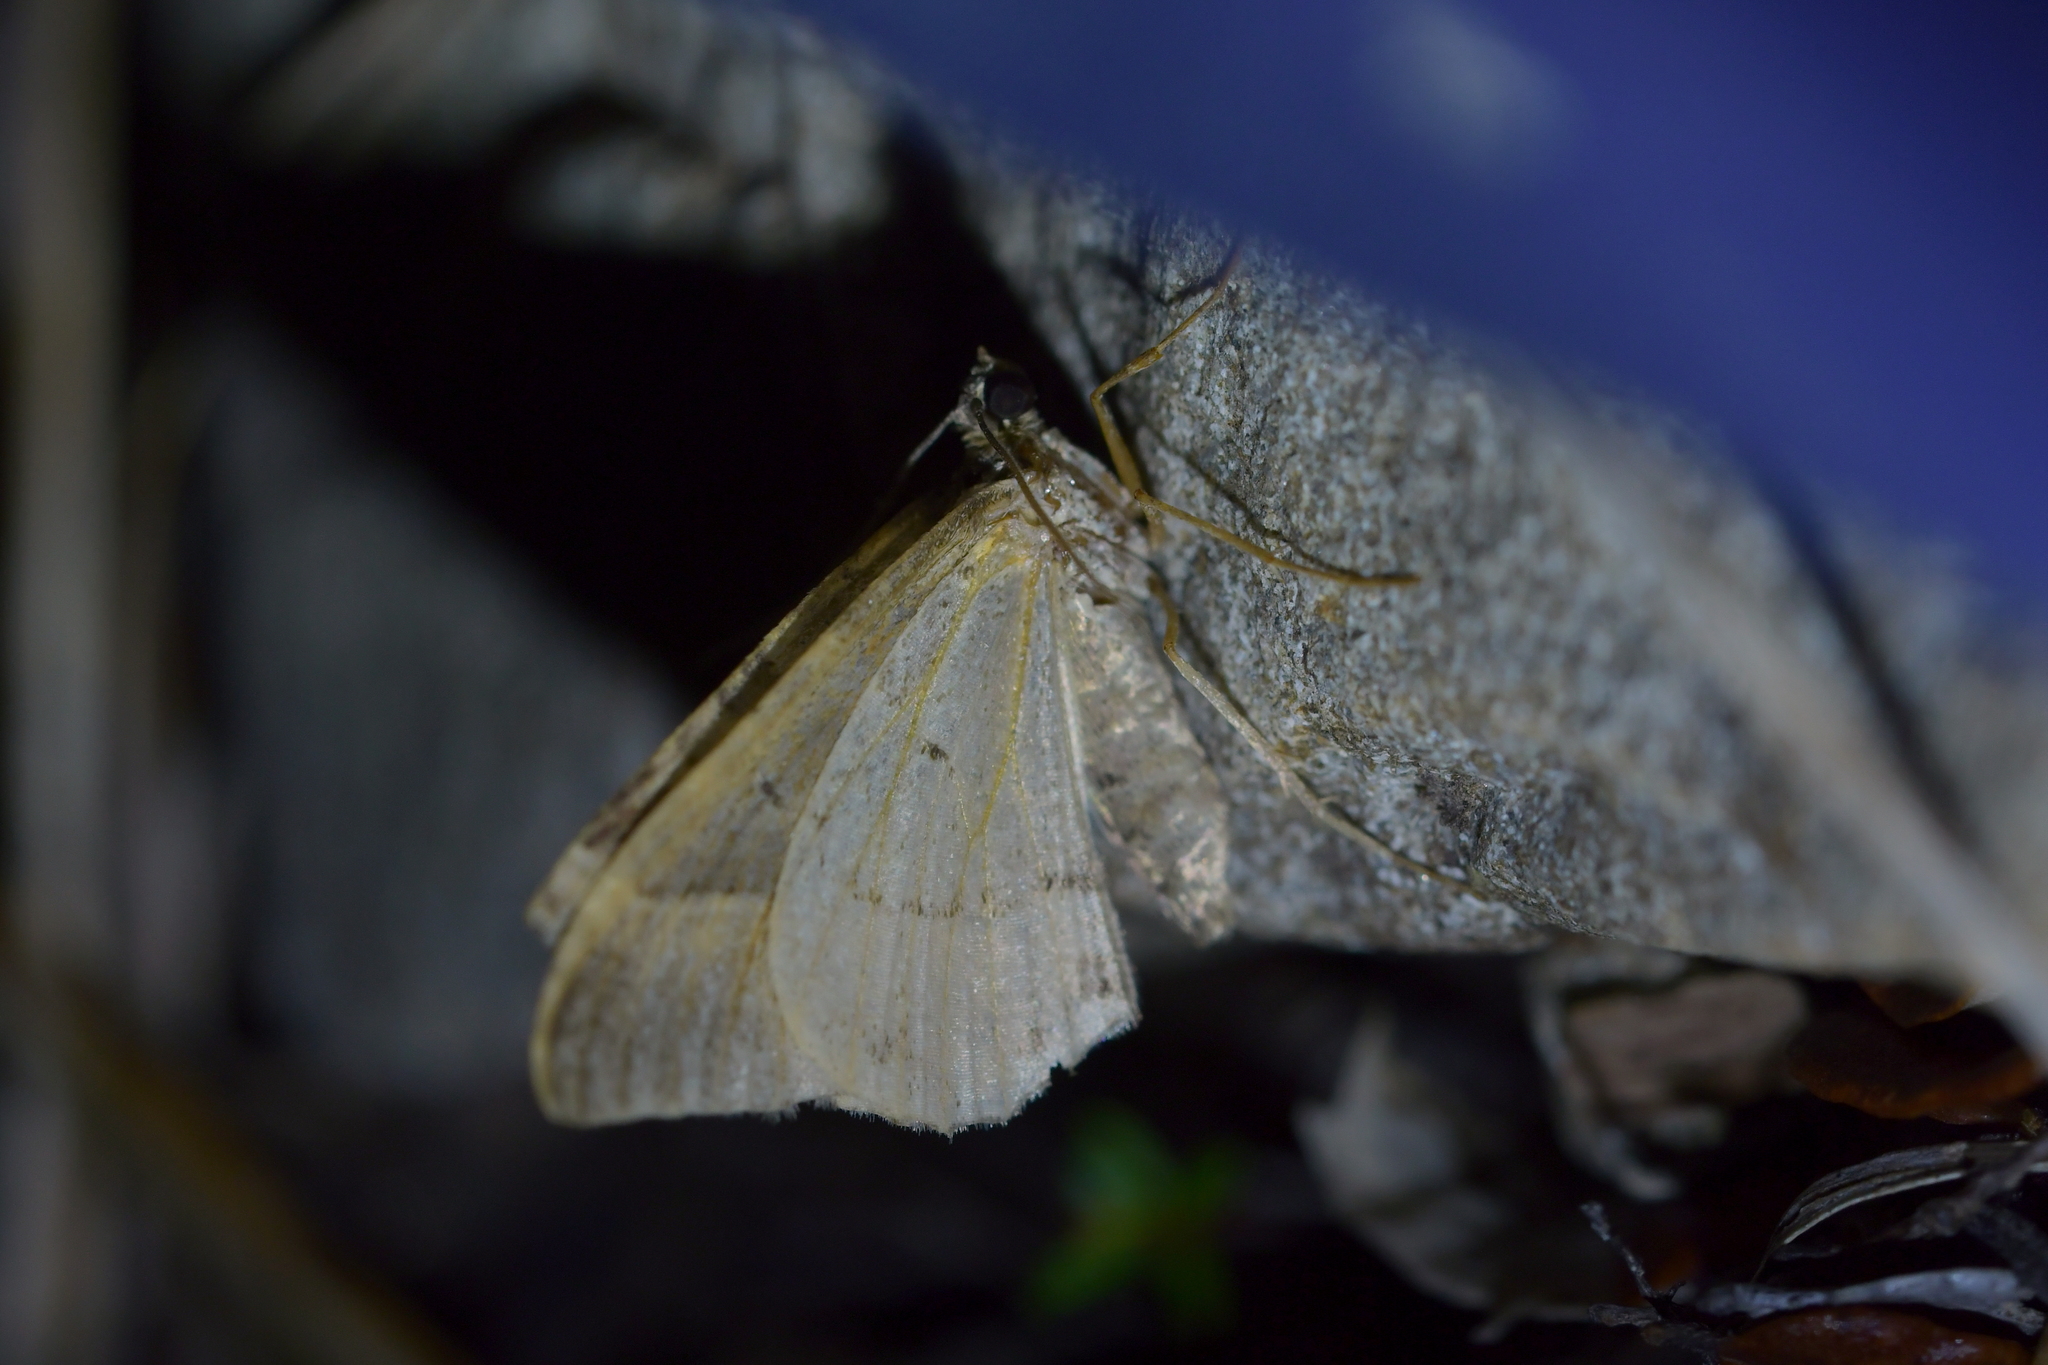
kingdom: Animalia
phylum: Arthropoda
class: Insecta
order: Lepidoptera
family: Geometridae
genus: Hydriomena
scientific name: Hydriomena deltoidata
